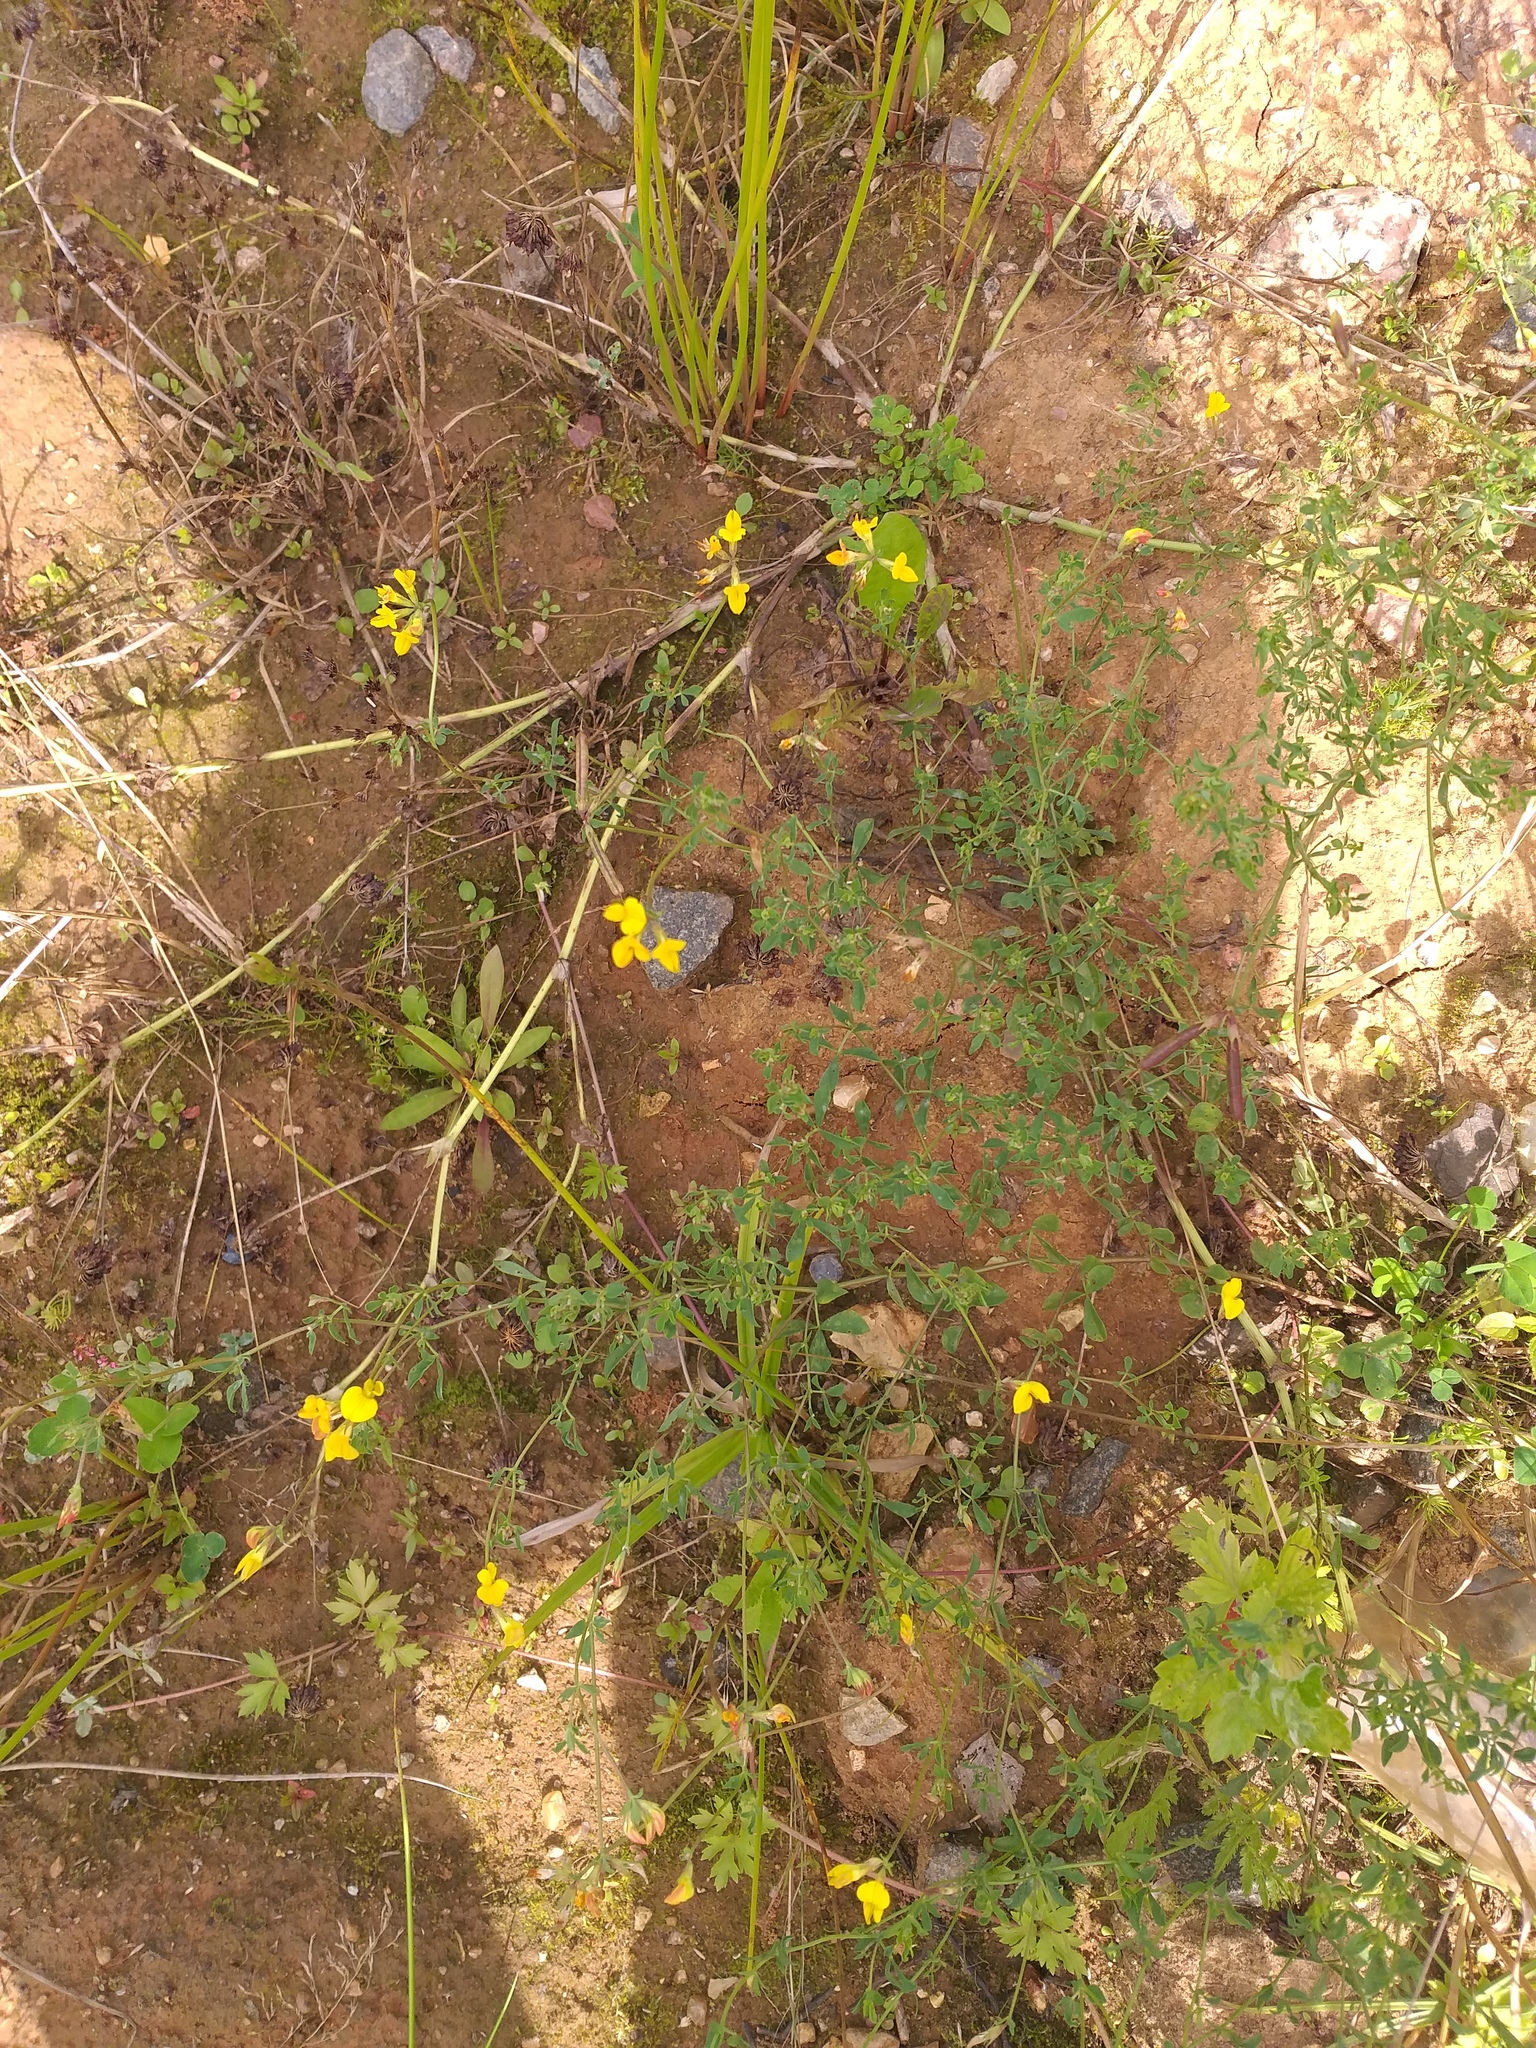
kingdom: Plantae
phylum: Tracheophyta
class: Magnoliopsida
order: Fabales
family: Fabaceae
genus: Lotus
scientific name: Lotus corniculatus
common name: Common bird's-foot-trefoil
